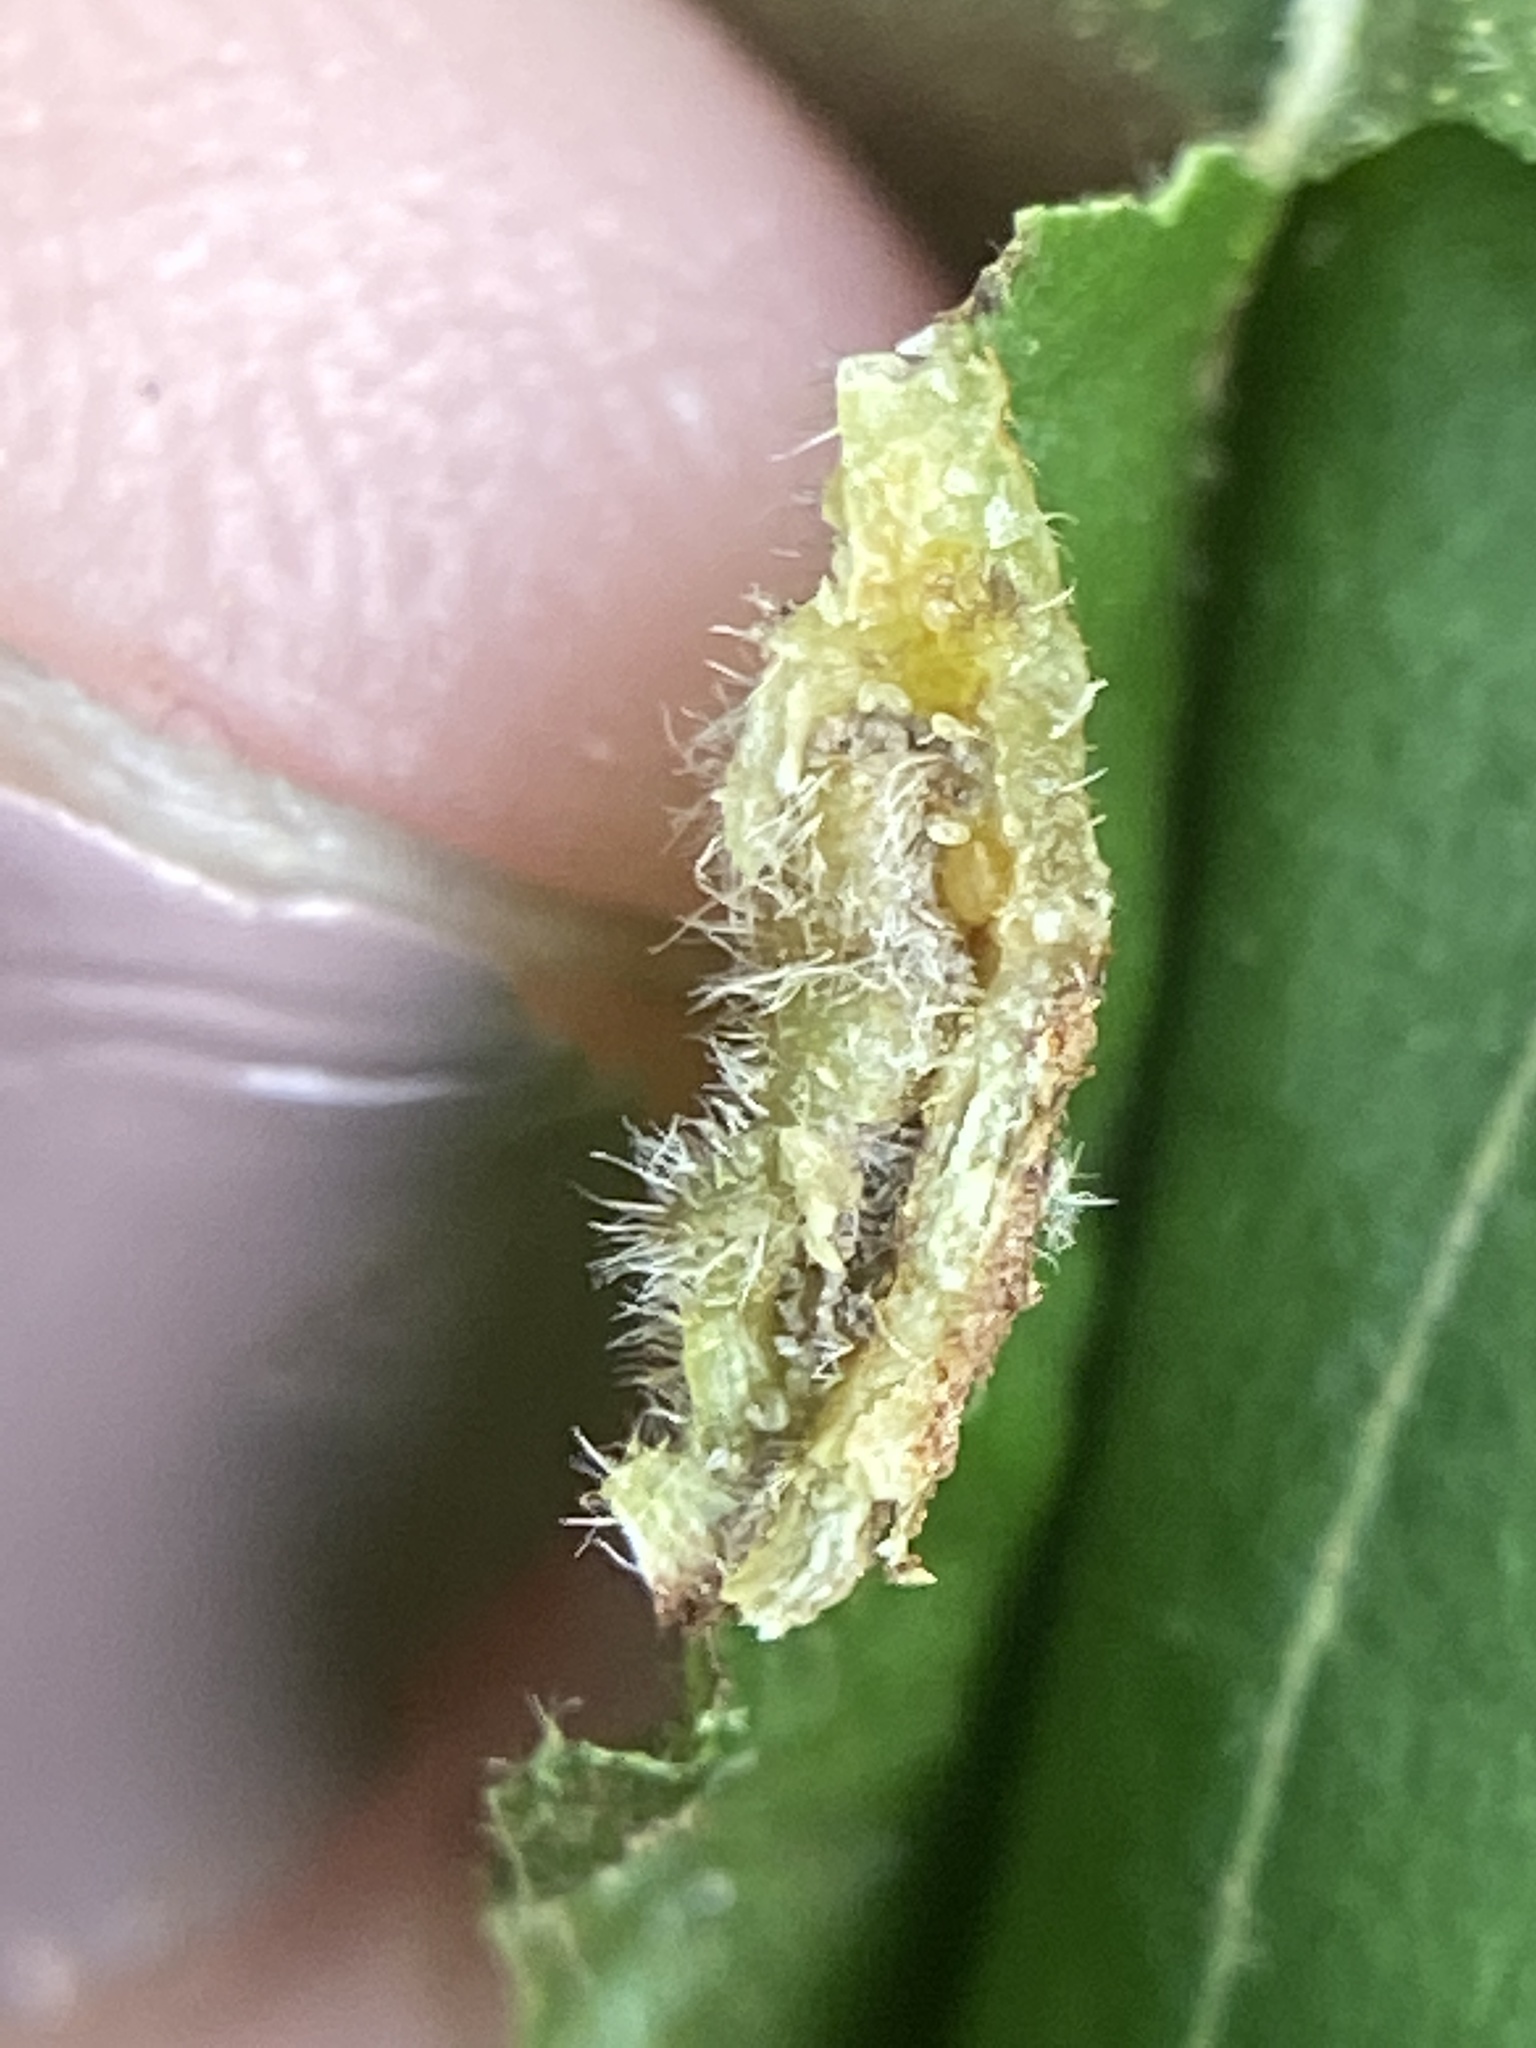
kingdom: Animalia
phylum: Arthropoda
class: Insecta
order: Hemiptera
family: Phylloxeridae
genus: Phylloxera
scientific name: Phylloxera caryaevenae
